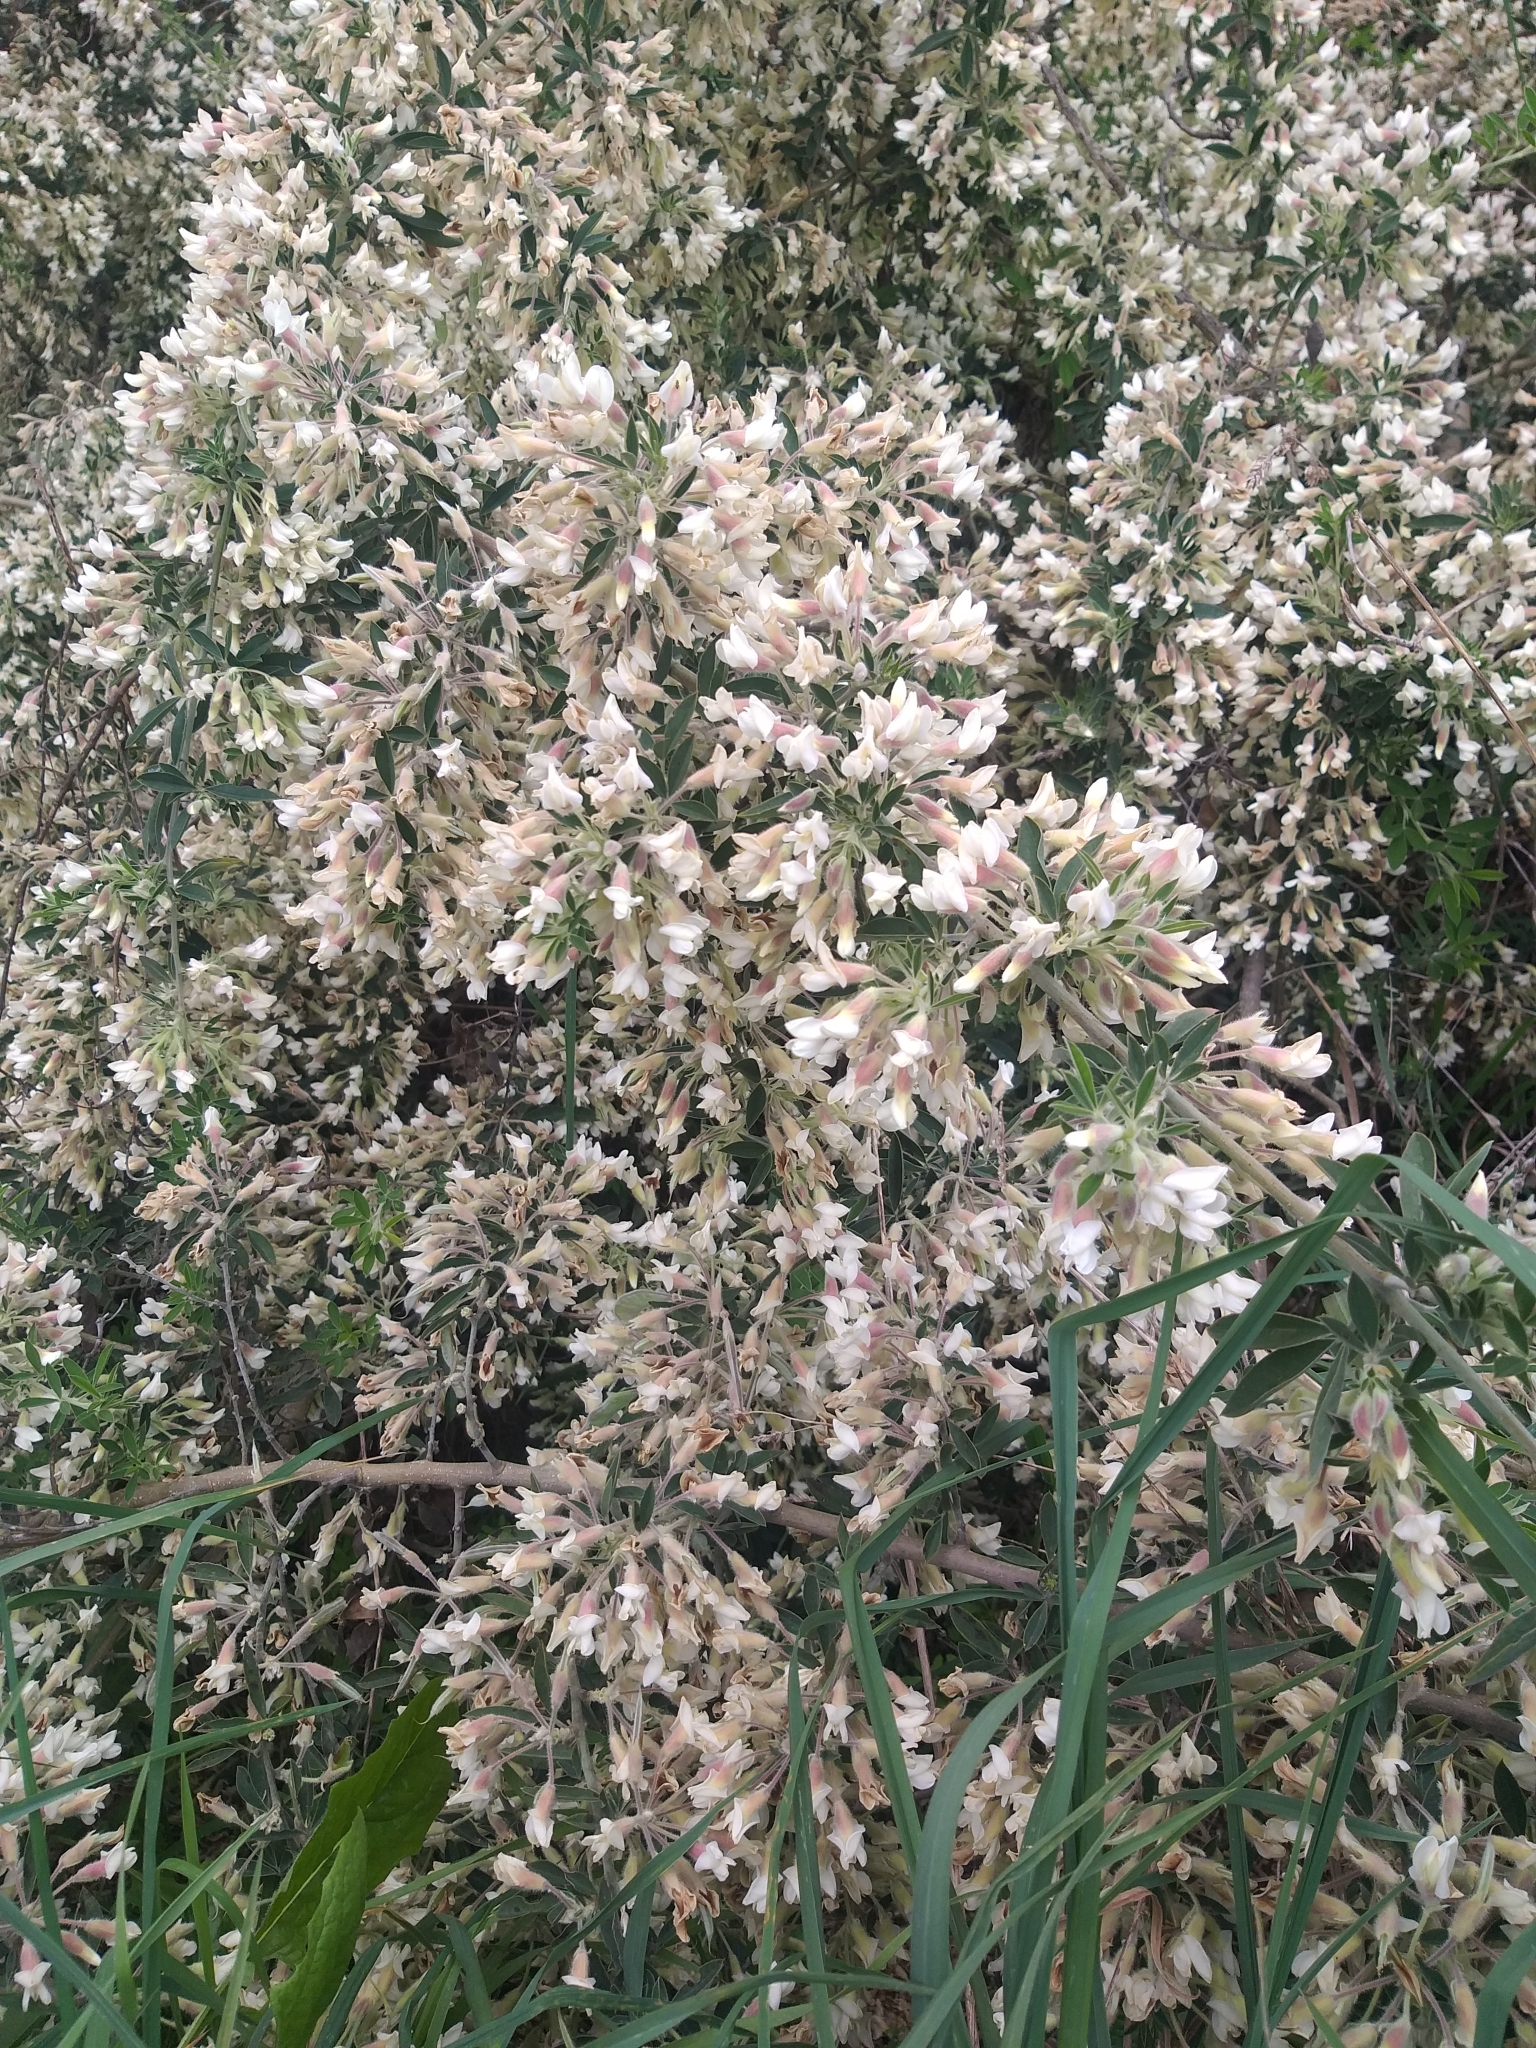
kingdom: Plantae
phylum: Tracheophyta
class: Magnoliopsida
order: Fabales
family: Fabaceae
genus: Chamaecytisus
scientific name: Chamaecytisus prolifer
